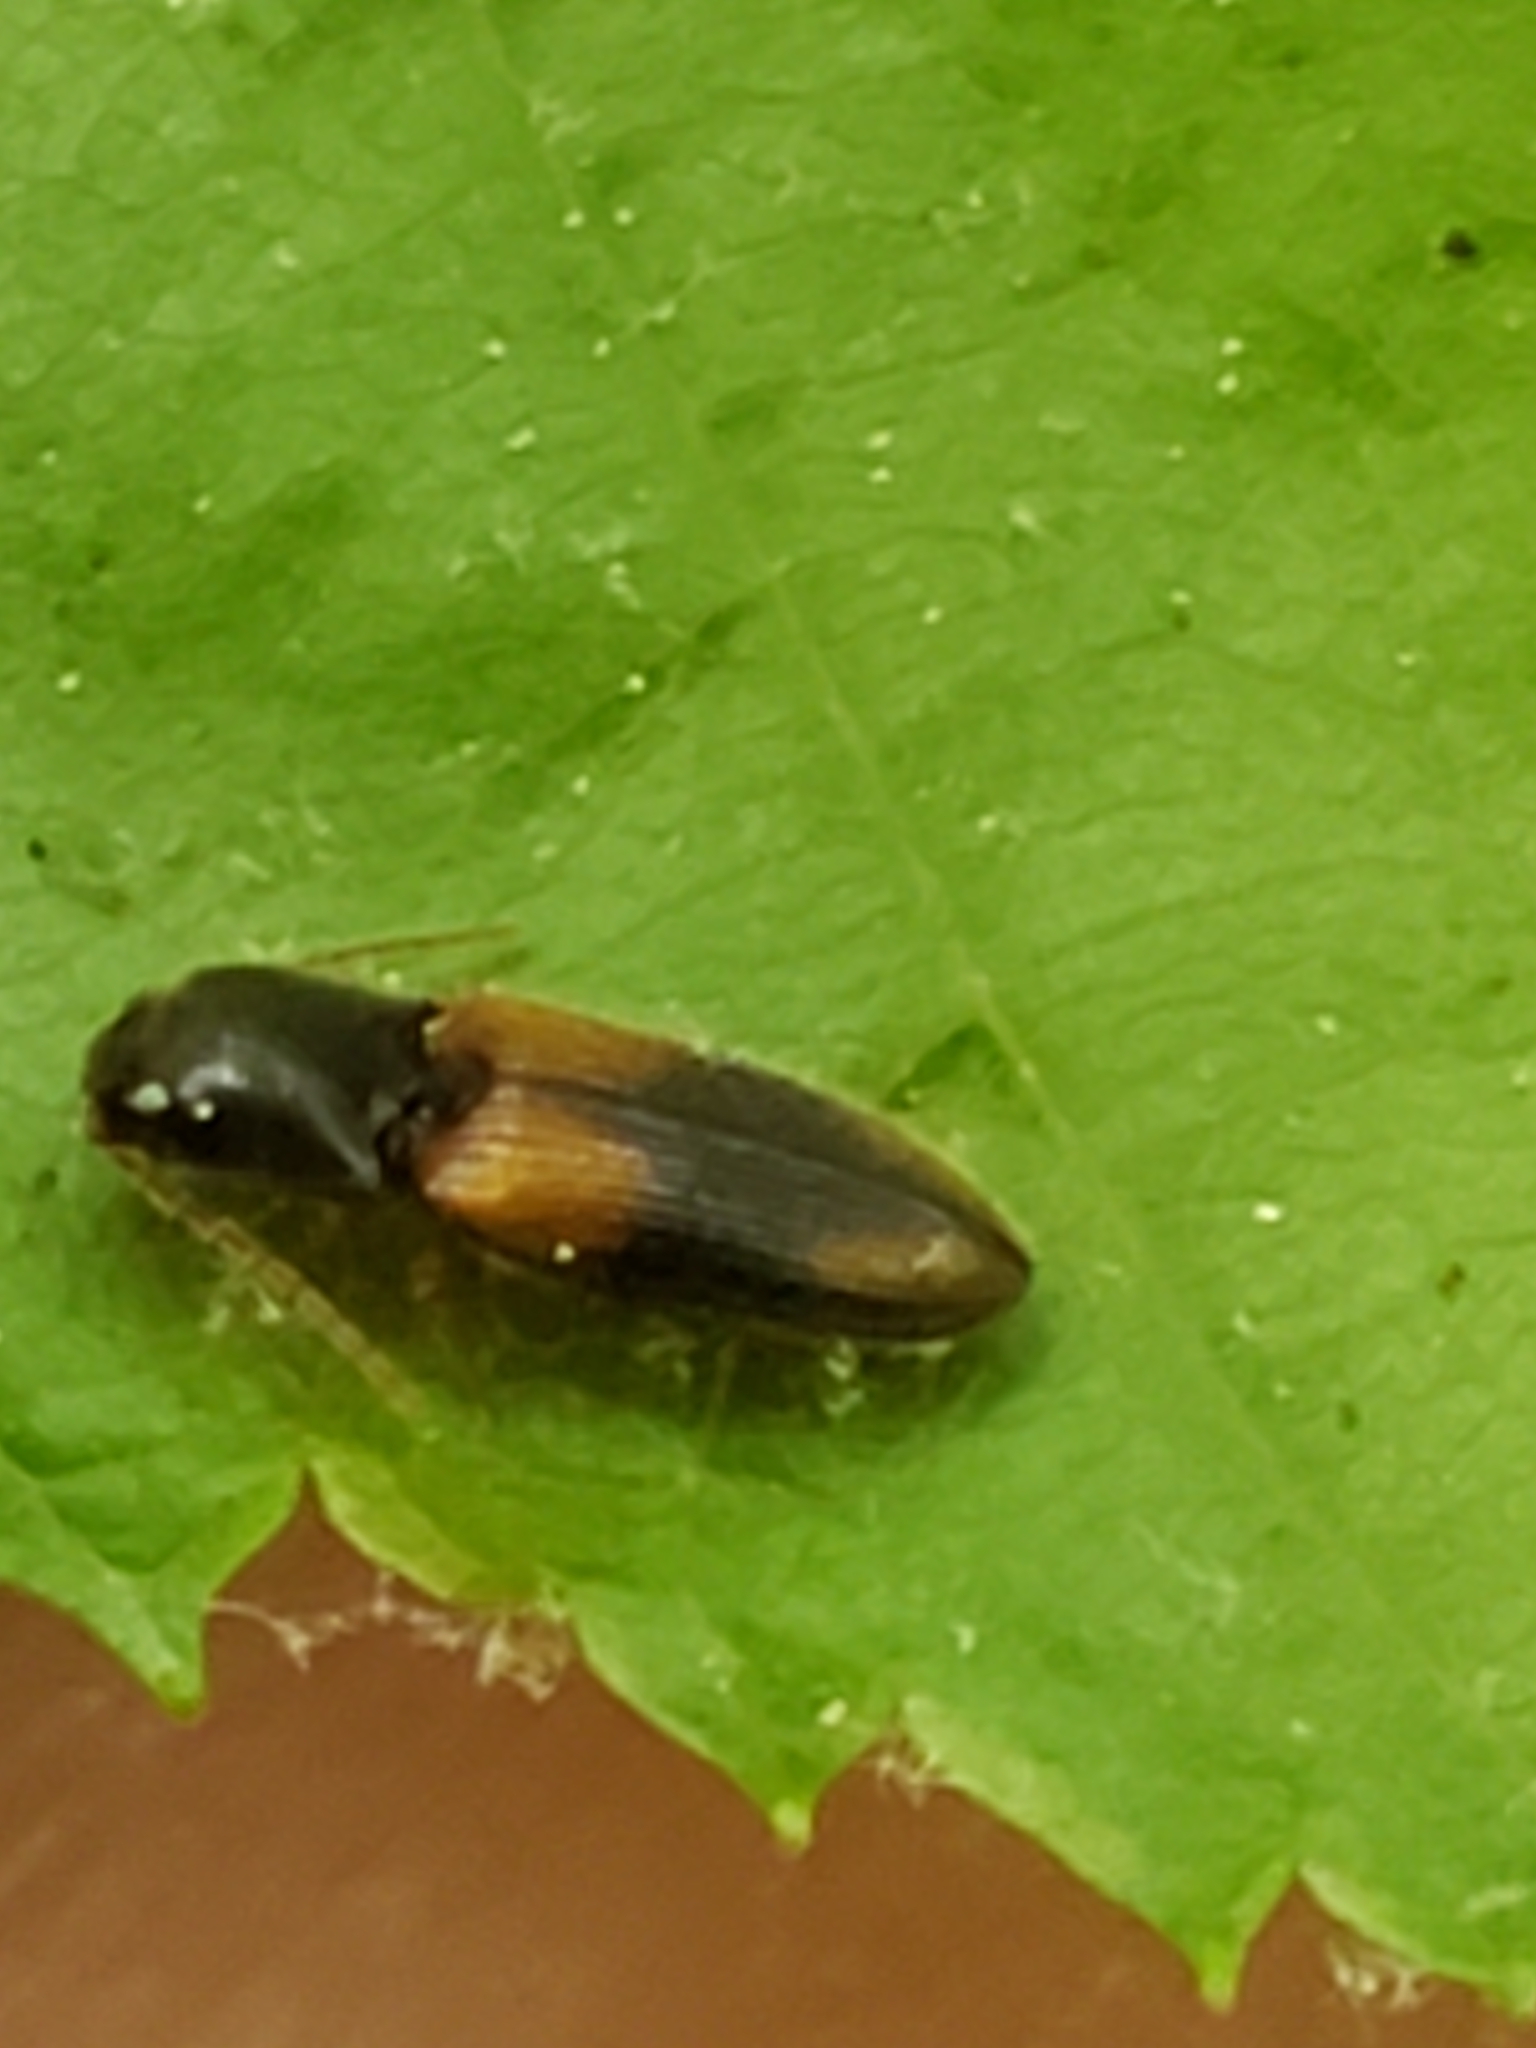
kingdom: Animalia
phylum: Arthropoda
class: Insecta
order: Coleoptera
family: Elateridae
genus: Horistonotus
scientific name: Horistonotus curiatus
